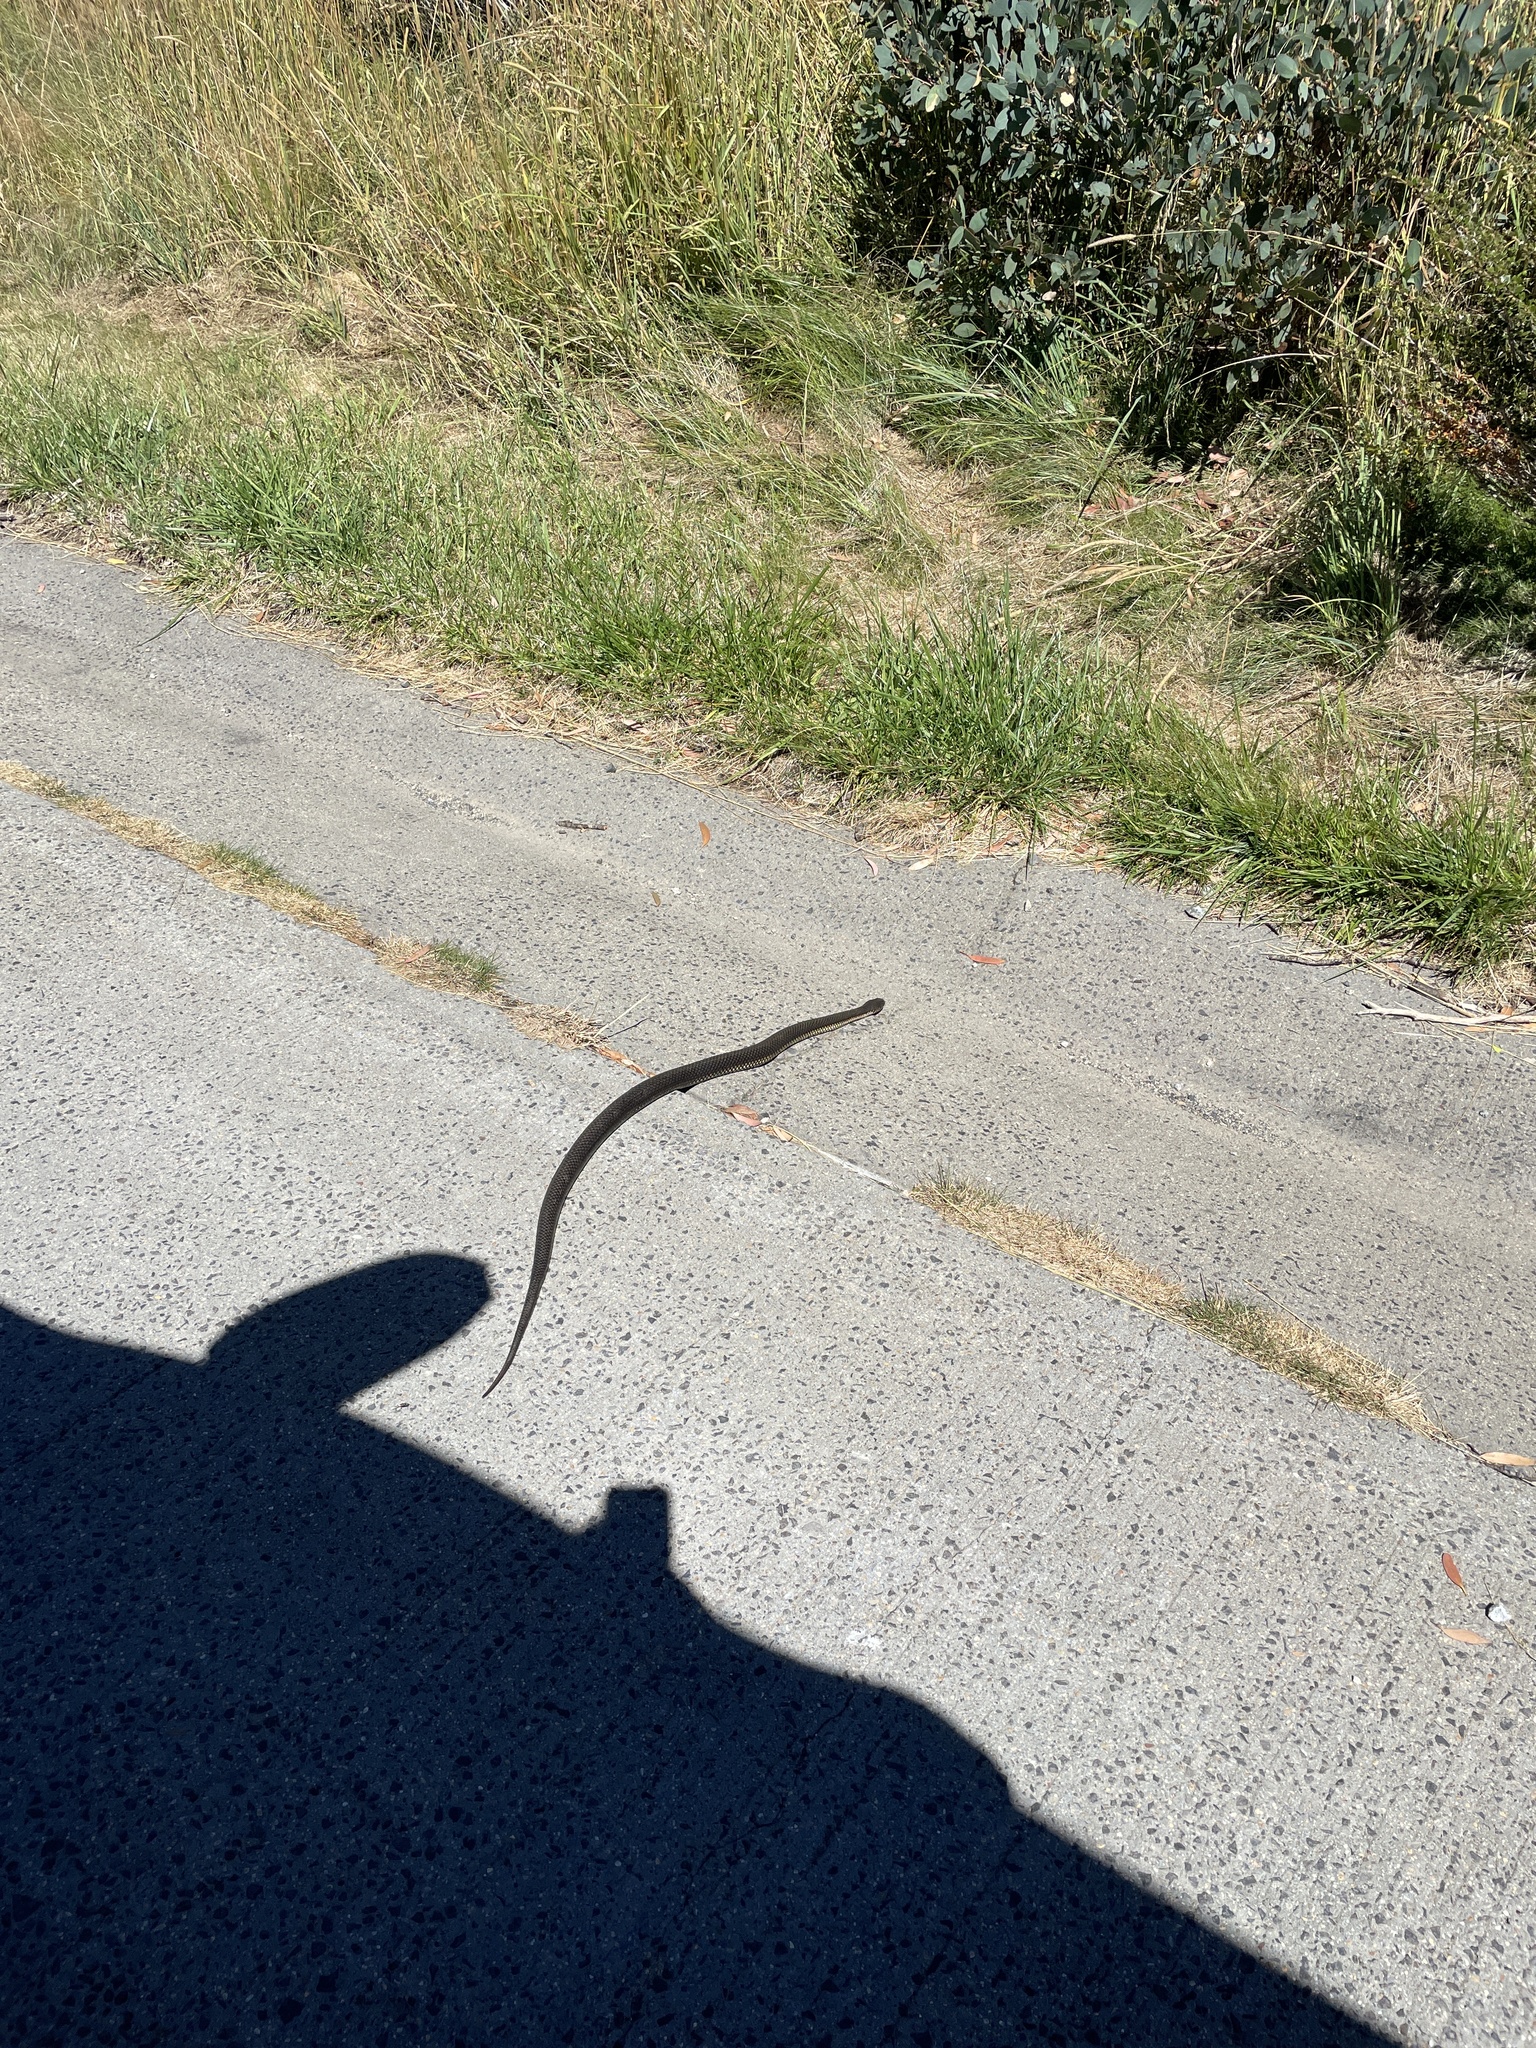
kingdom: Animalia
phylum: Chordata
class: Squamata
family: Elapidae
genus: Austrelaps
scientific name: Austrelaps ramsayi
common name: Highlands copperhead
